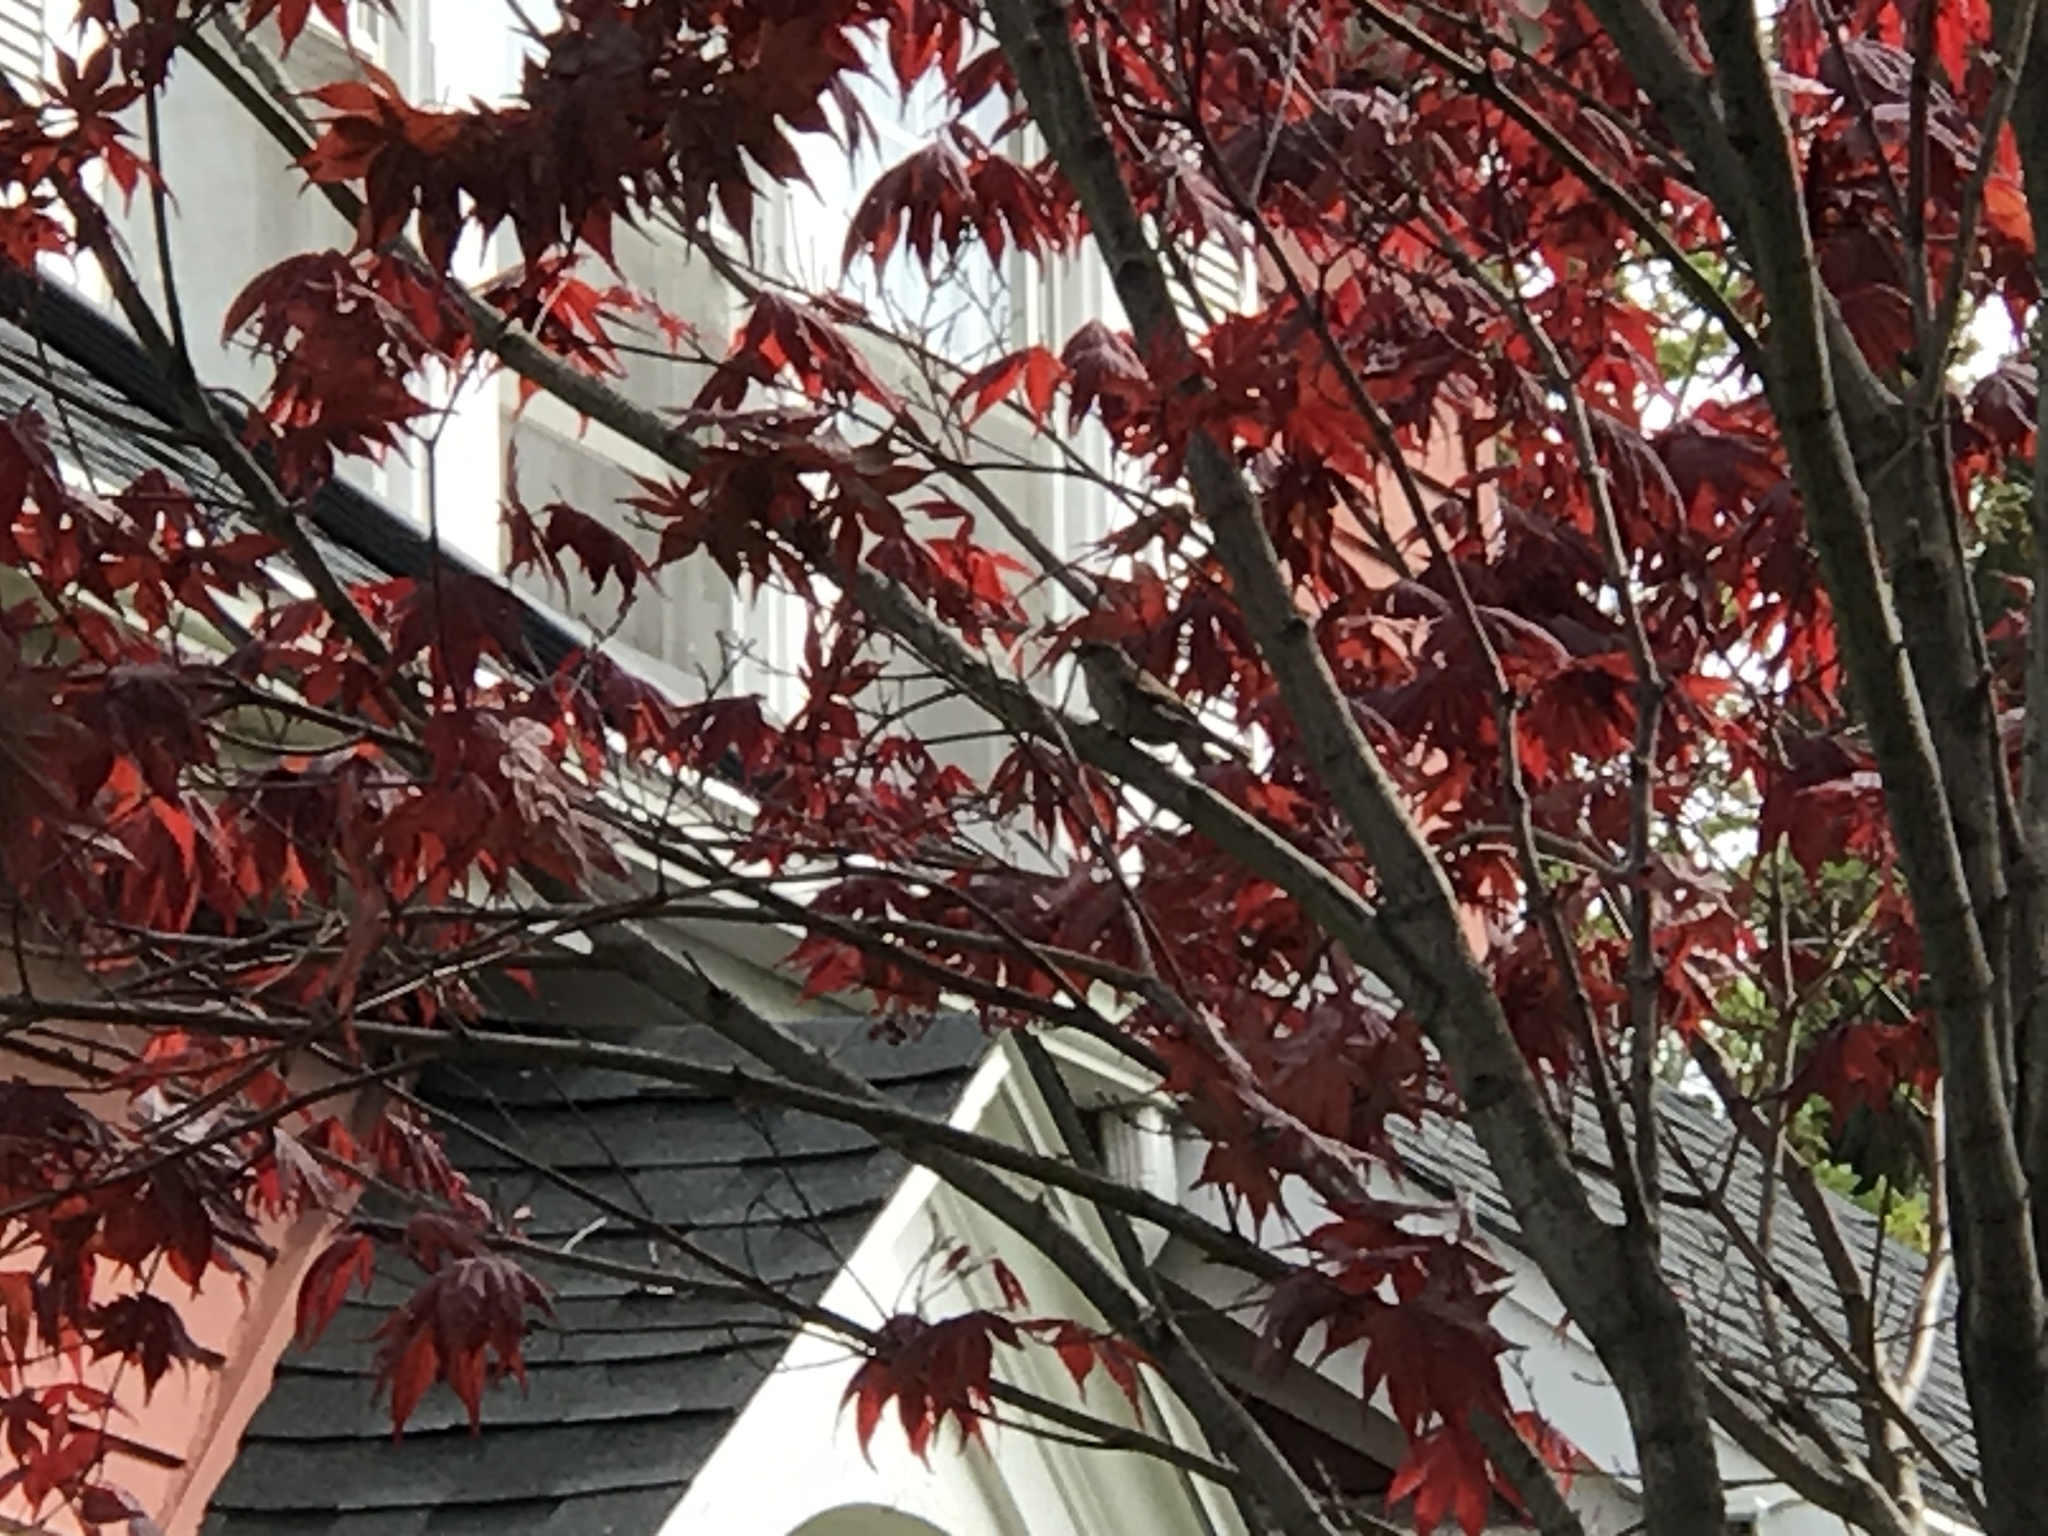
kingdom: Animalia
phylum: Chordata
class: Aves
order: Passeriformes
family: Troglodytidae
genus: Troglodytes
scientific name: Troglodytes aedon
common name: House wren
